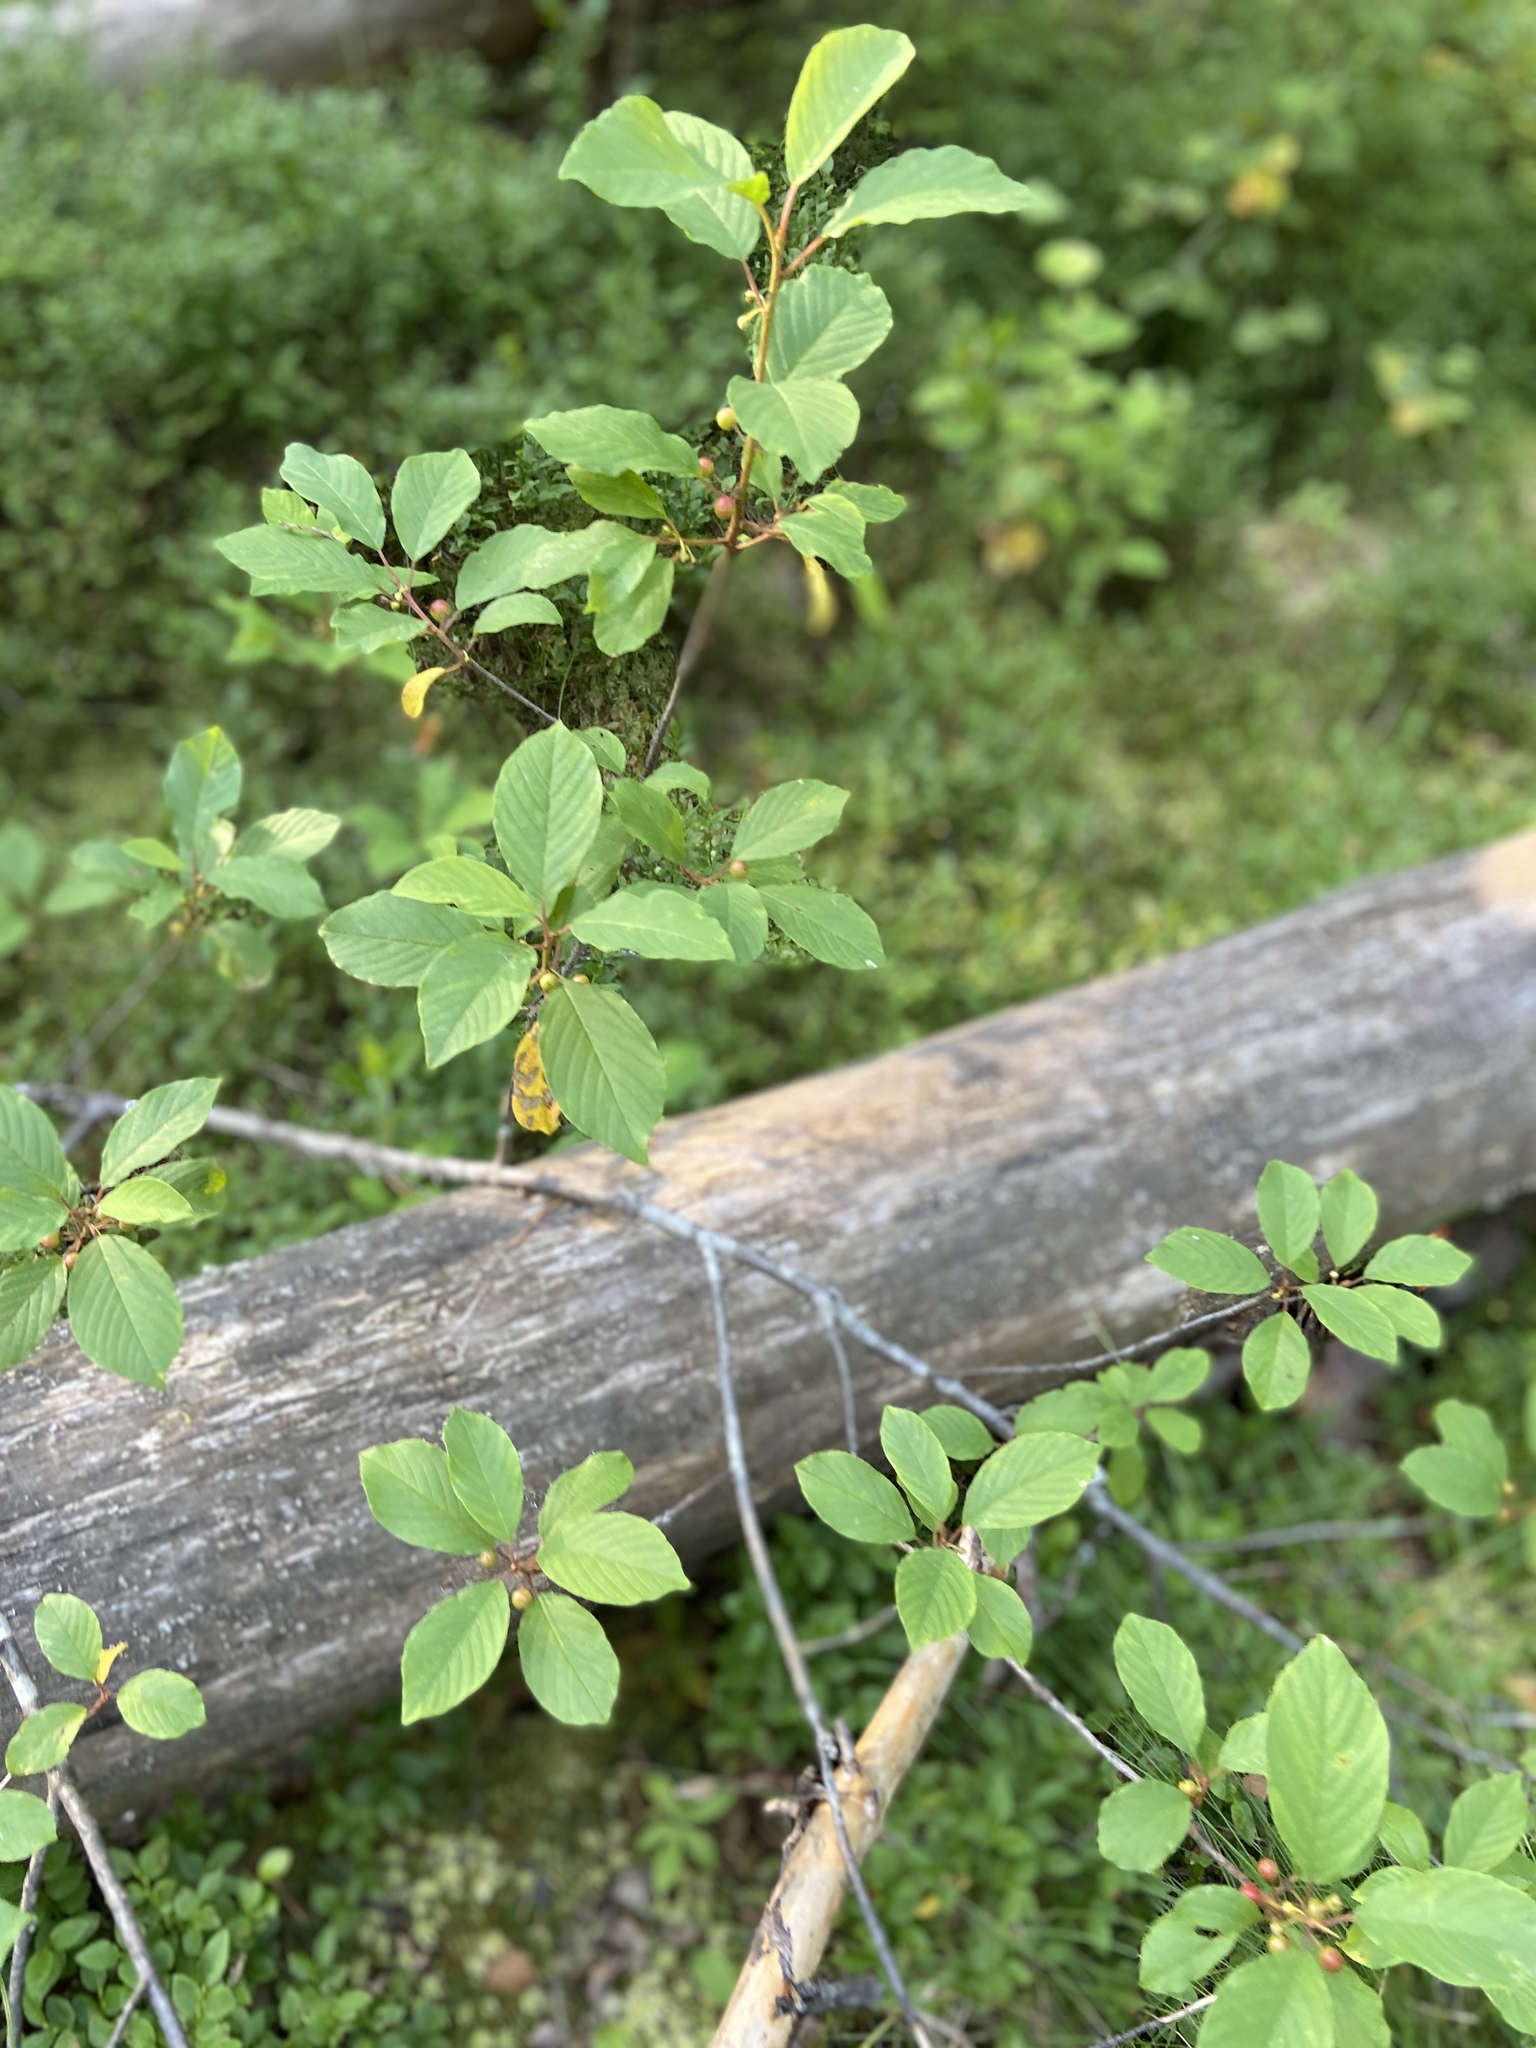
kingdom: Plantae
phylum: Tracheophyta
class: Magnoliopsida
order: Rosales
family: Rhamnaceae
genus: Frangula
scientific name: Frangula alnus
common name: Alder buckthorn
